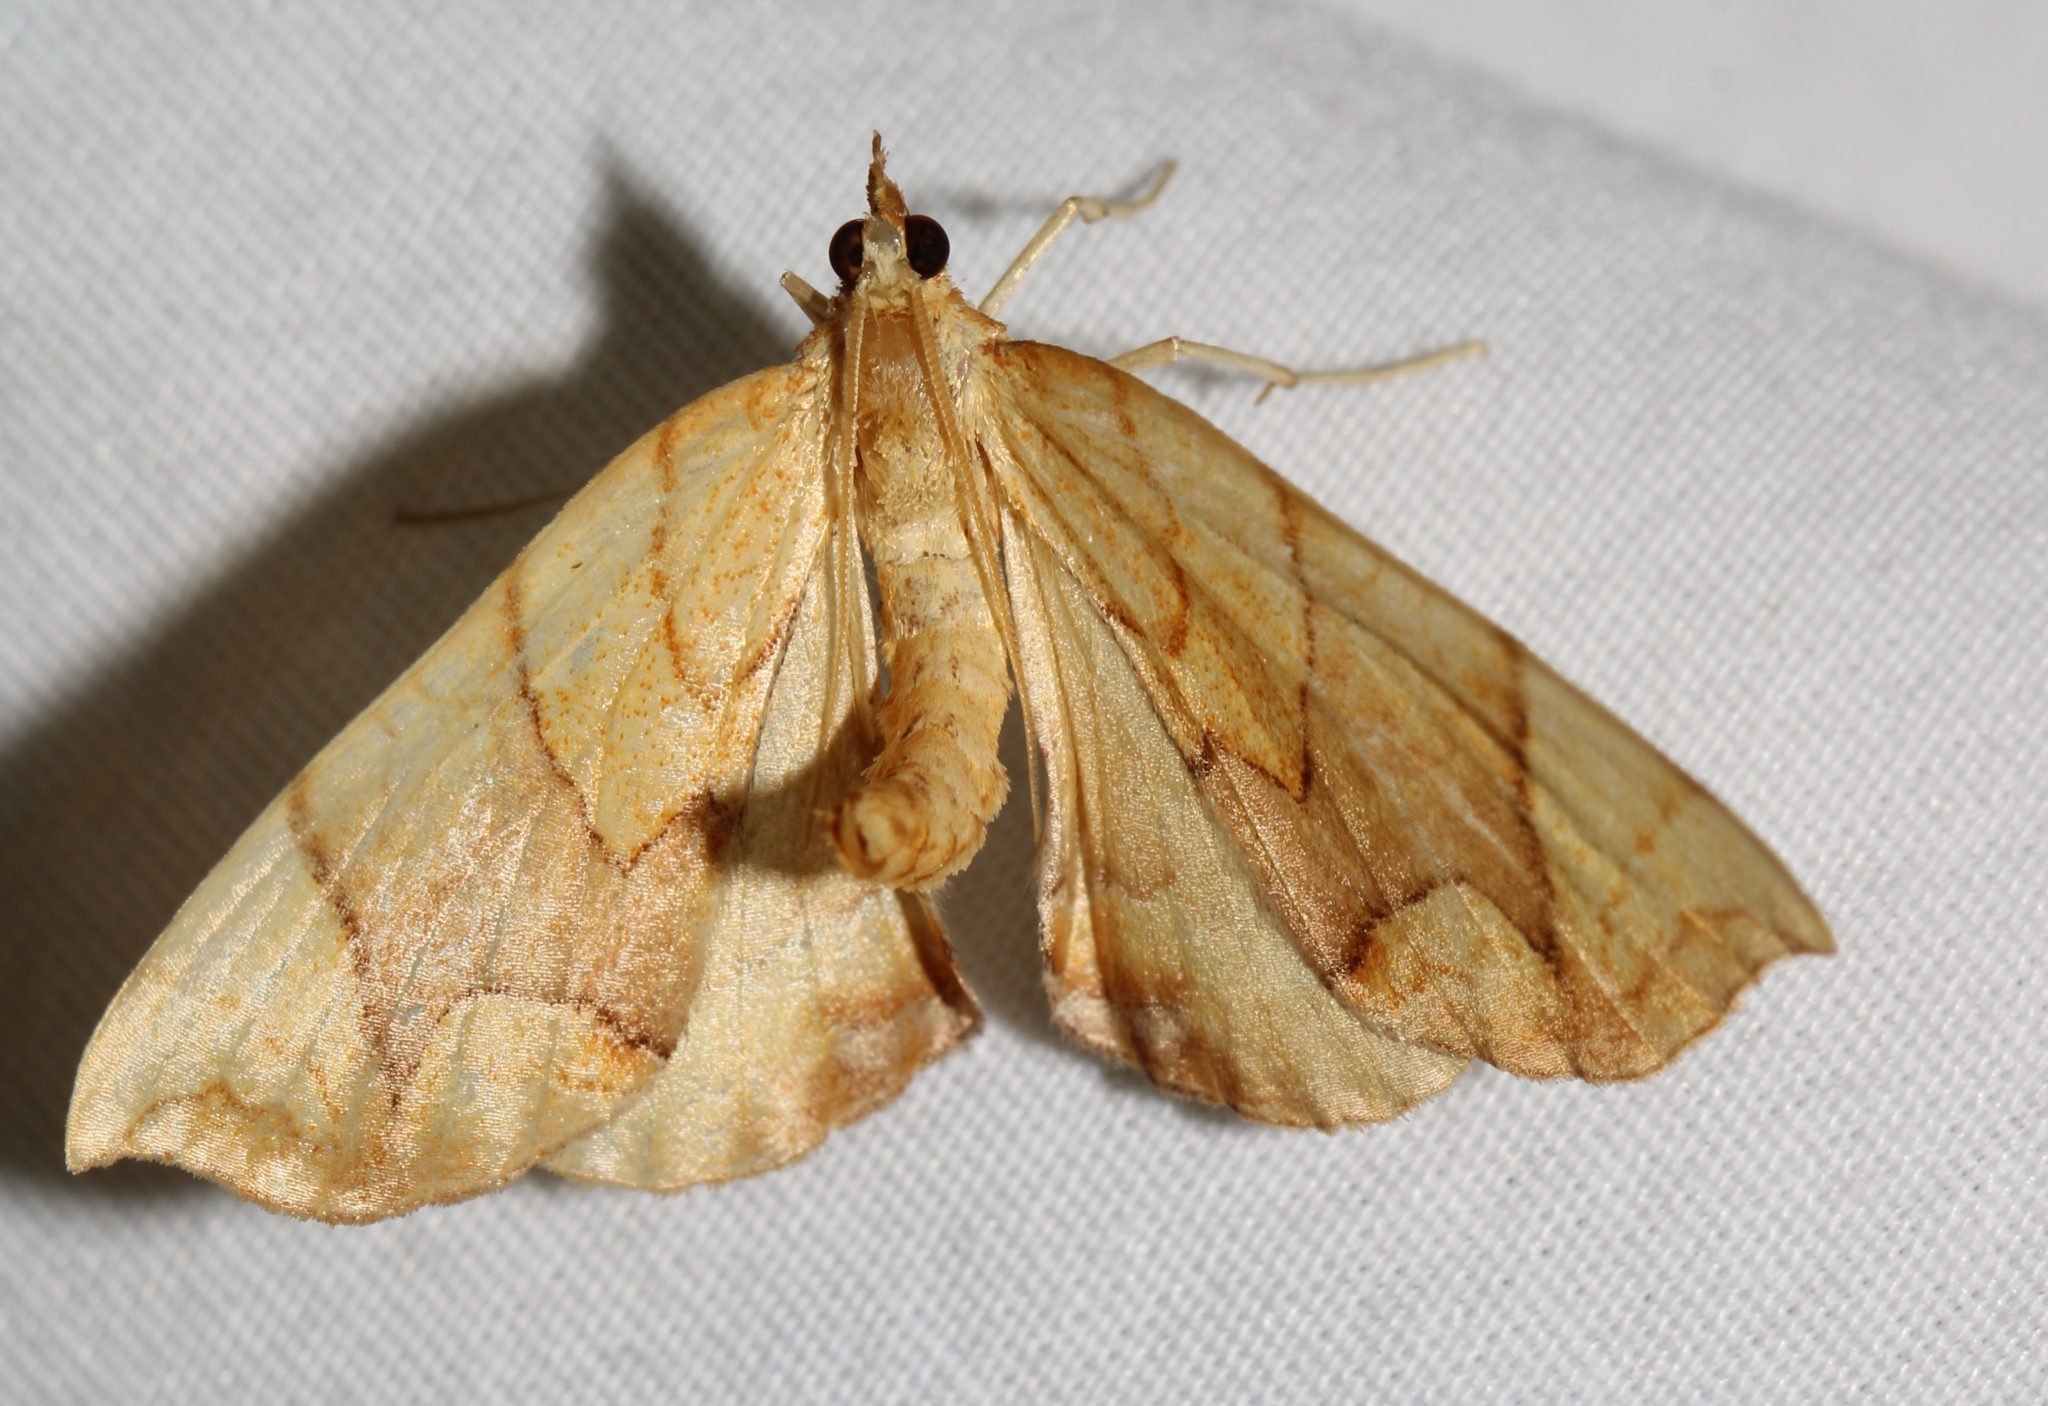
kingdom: Animalia
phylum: Arthropoda
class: Insecta
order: Lepidoptera
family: Geometridae
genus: Eulithis
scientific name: Eulithis
